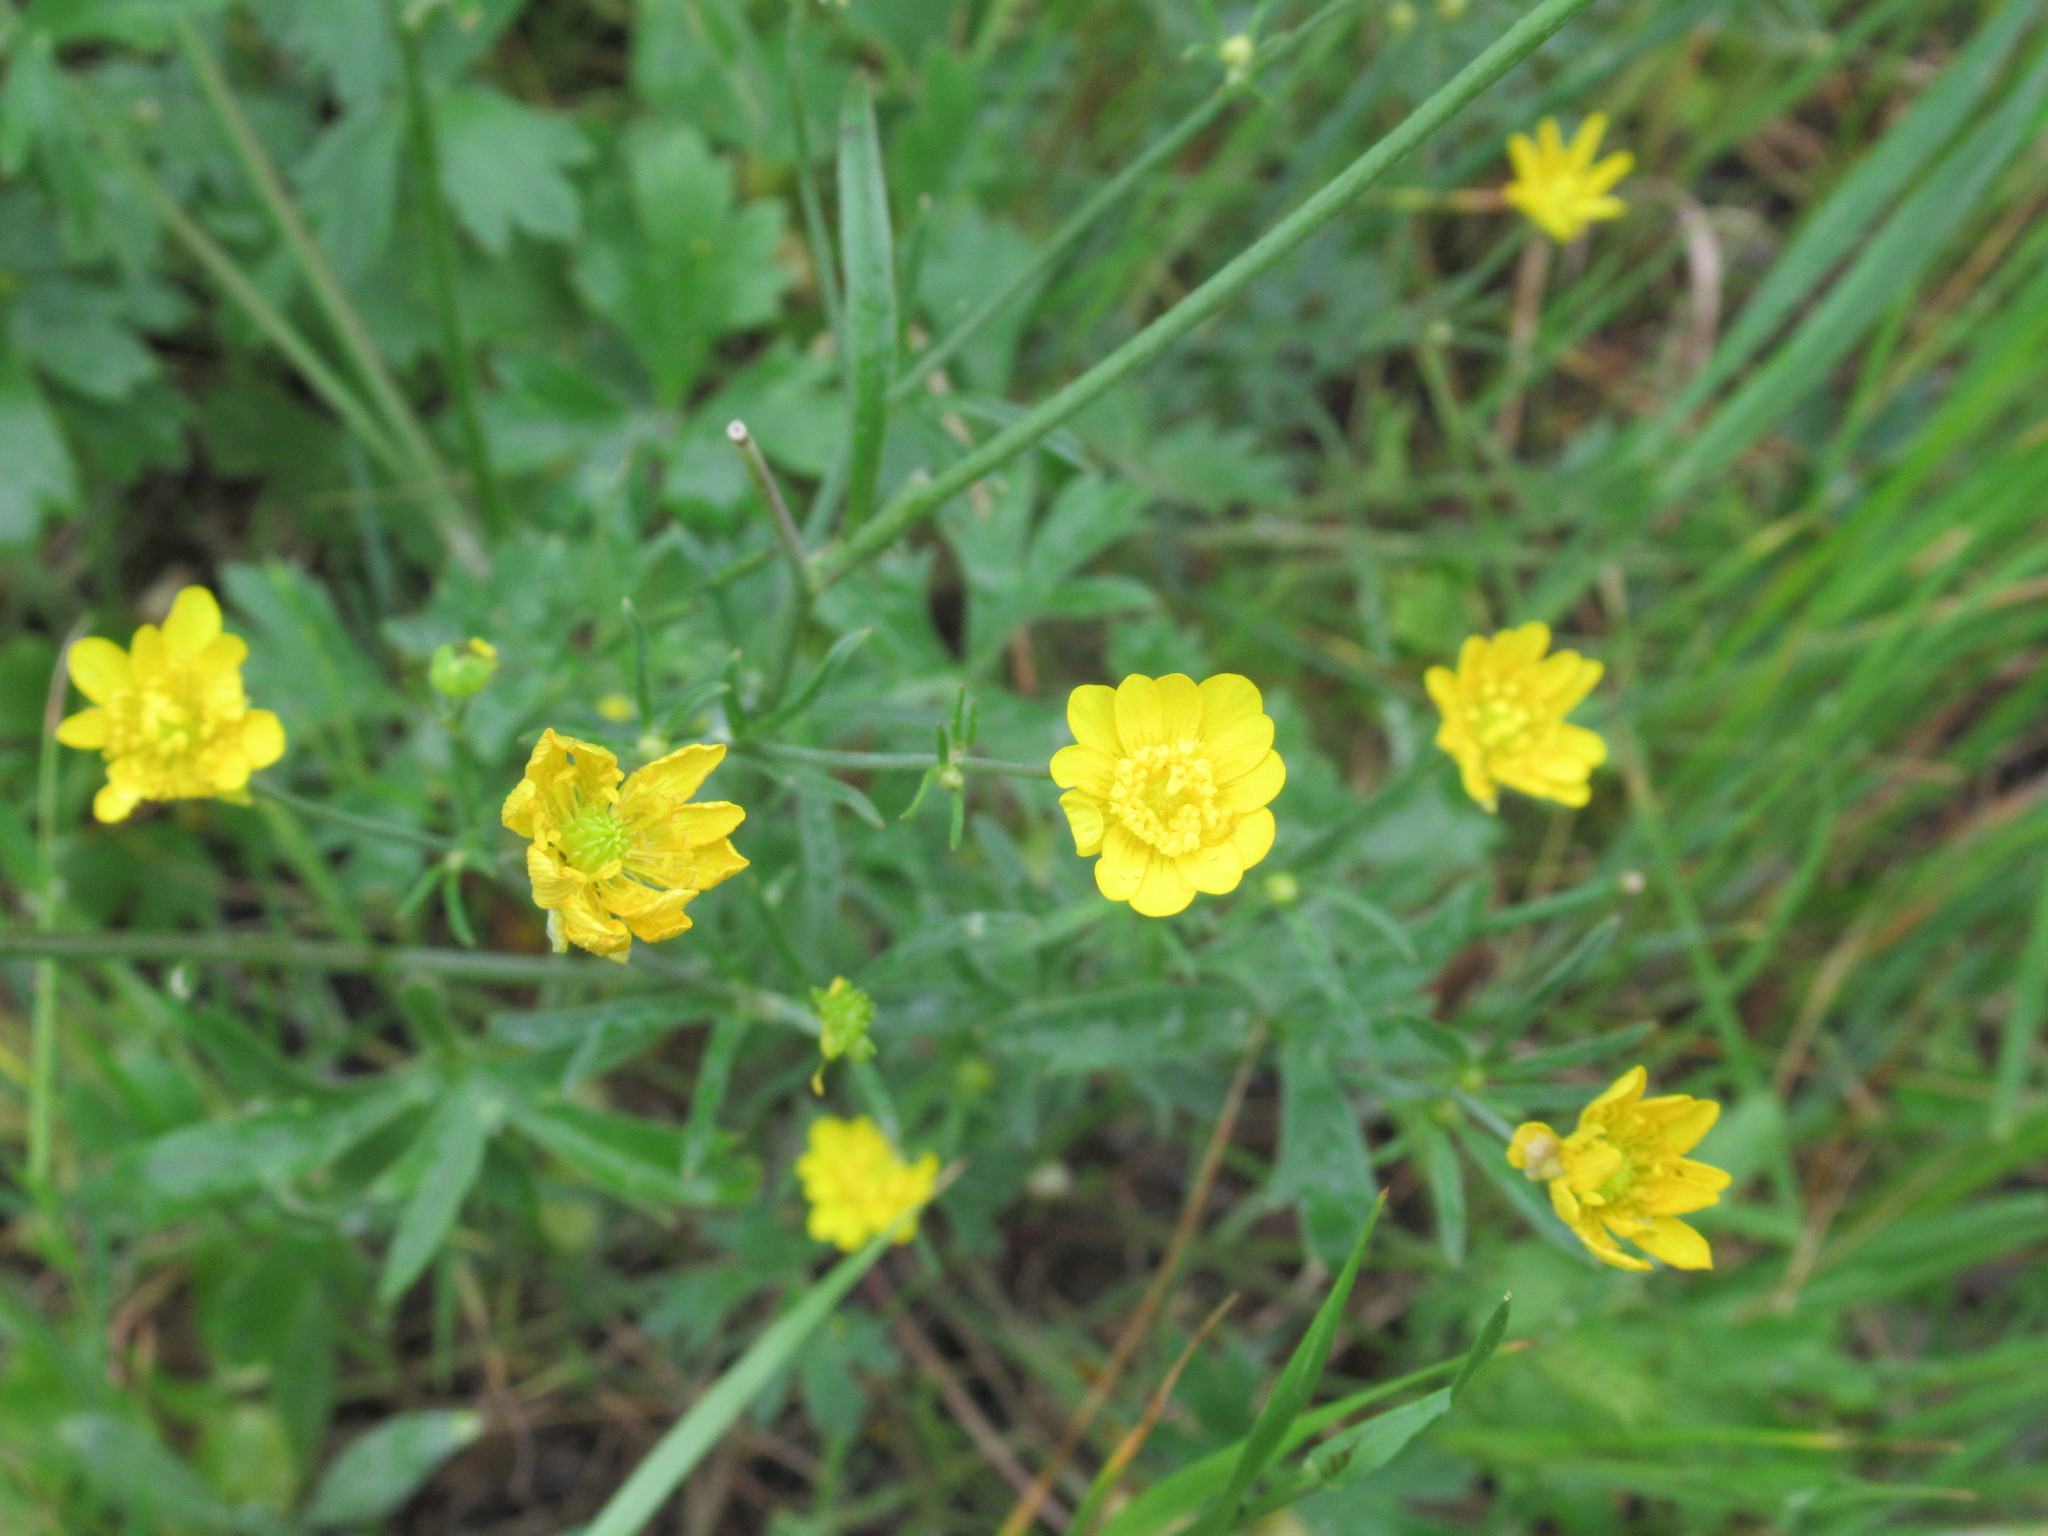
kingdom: Plantae
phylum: Tracheophyta
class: Magnoliopsida
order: Ranunculales
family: Ranunculaceae
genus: Ranunculus
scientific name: Ranunculus californicus
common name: California buttercup
